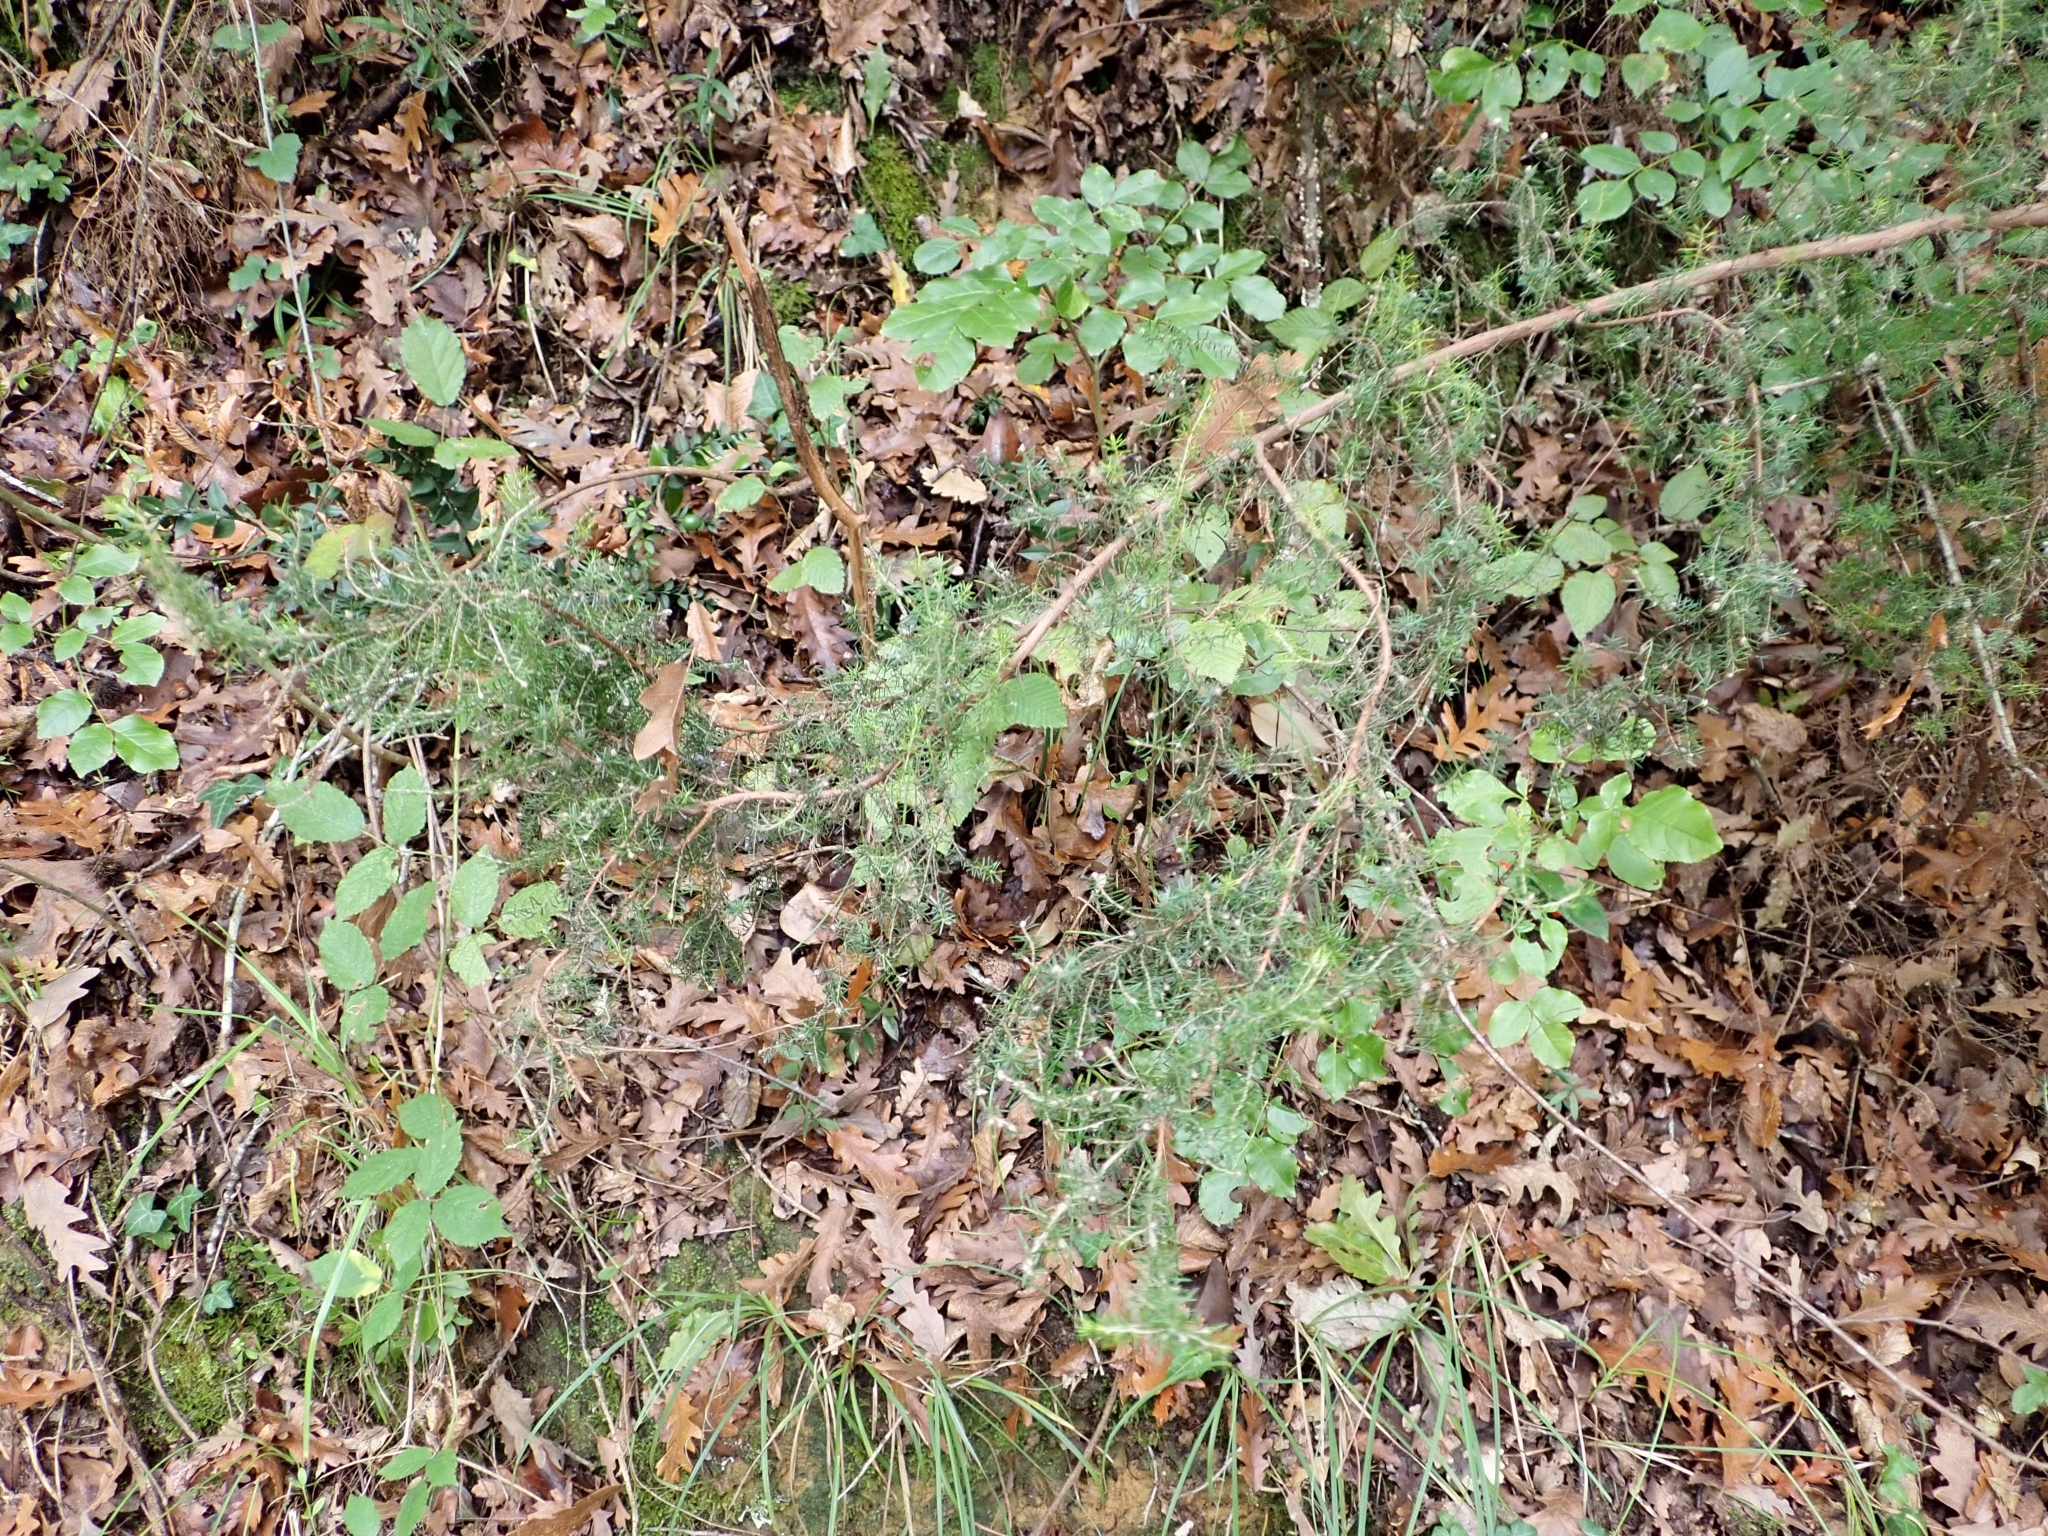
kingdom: Plantae
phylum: Tracheophyta
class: Magnoliopsida
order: Ericales
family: Ericaceae
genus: Erica
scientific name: Erica arborea
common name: Tree heath
